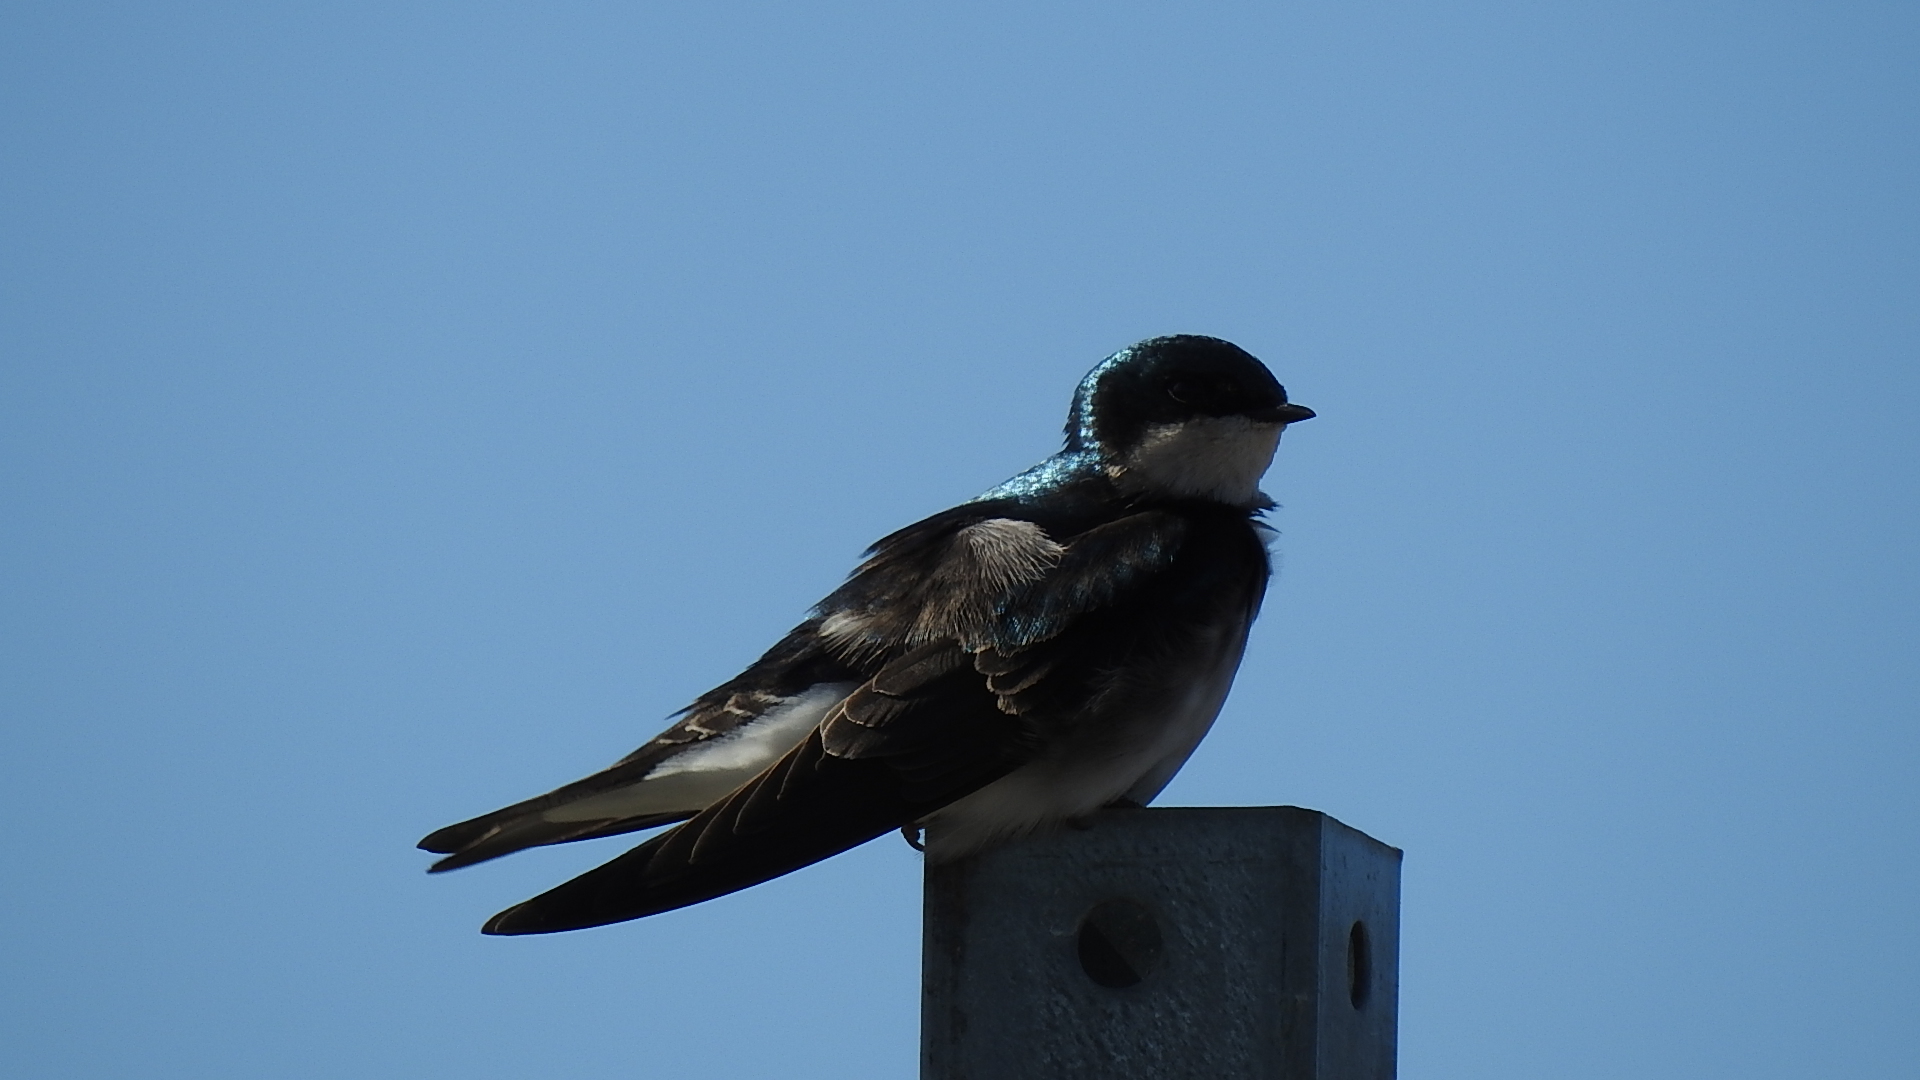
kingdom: Animalia
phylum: Chordata
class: Aves
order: Passeriformes
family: Hirundinidae
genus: Tachycineta
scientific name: Tachycineta bicolor
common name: Tree swallow
